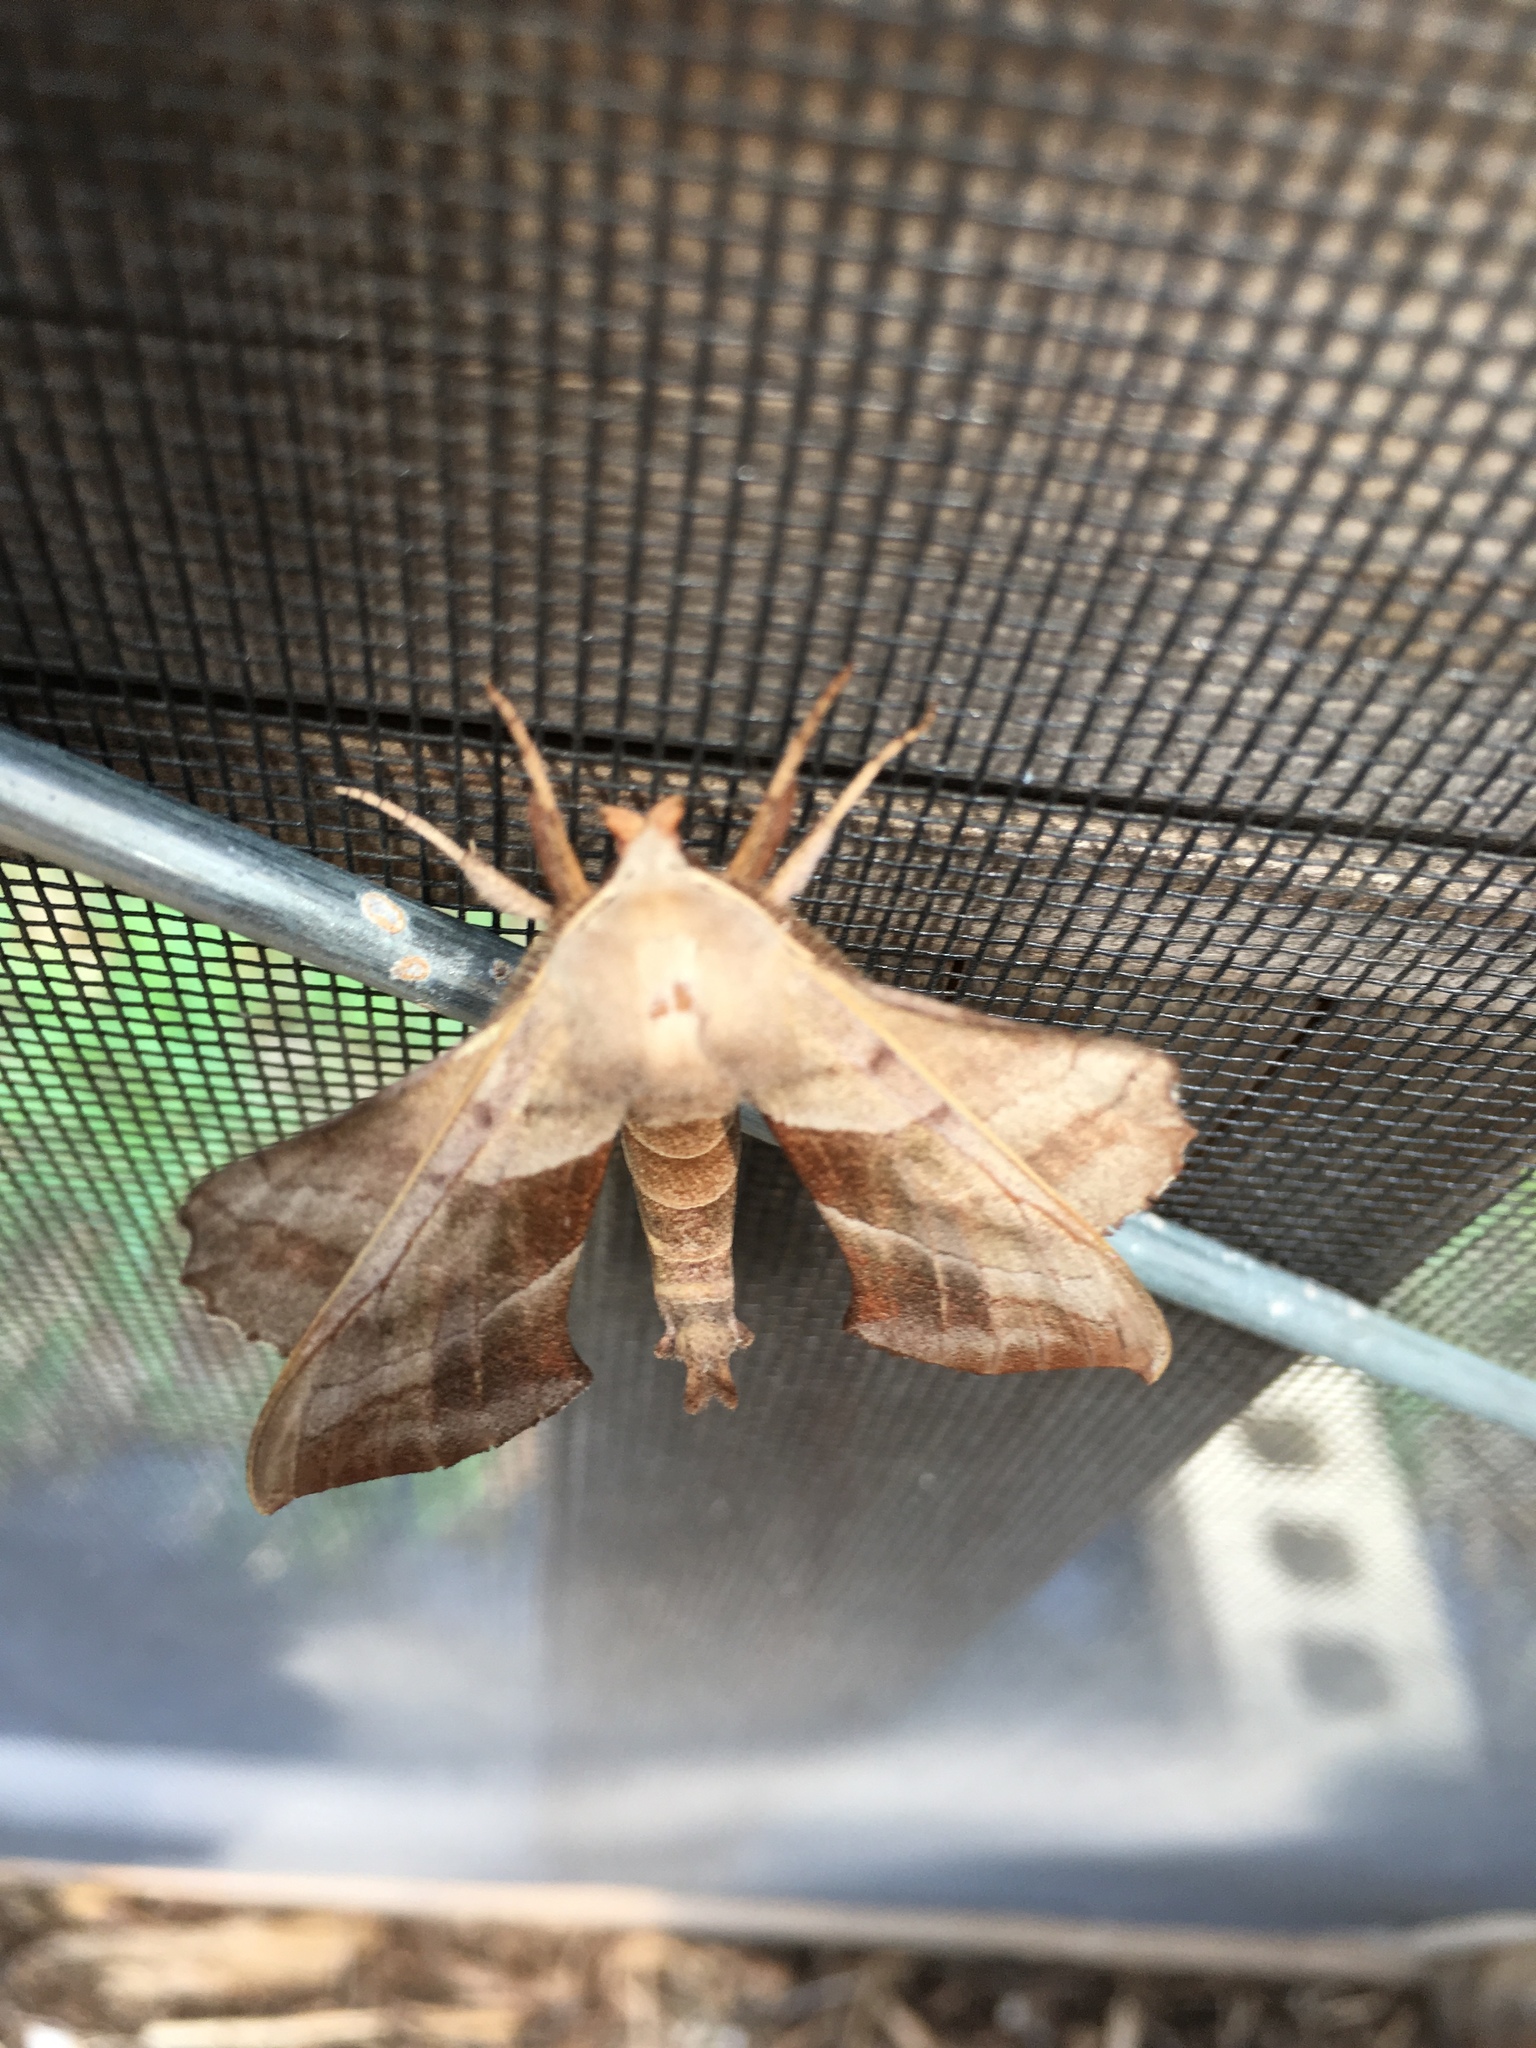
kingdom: Animalia
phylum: Arthropoda
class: Insecta
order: Lepidoptera
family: Sphingidae
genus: Amorpha
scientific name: Amorpha juglandis
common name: Walnut sphinx
